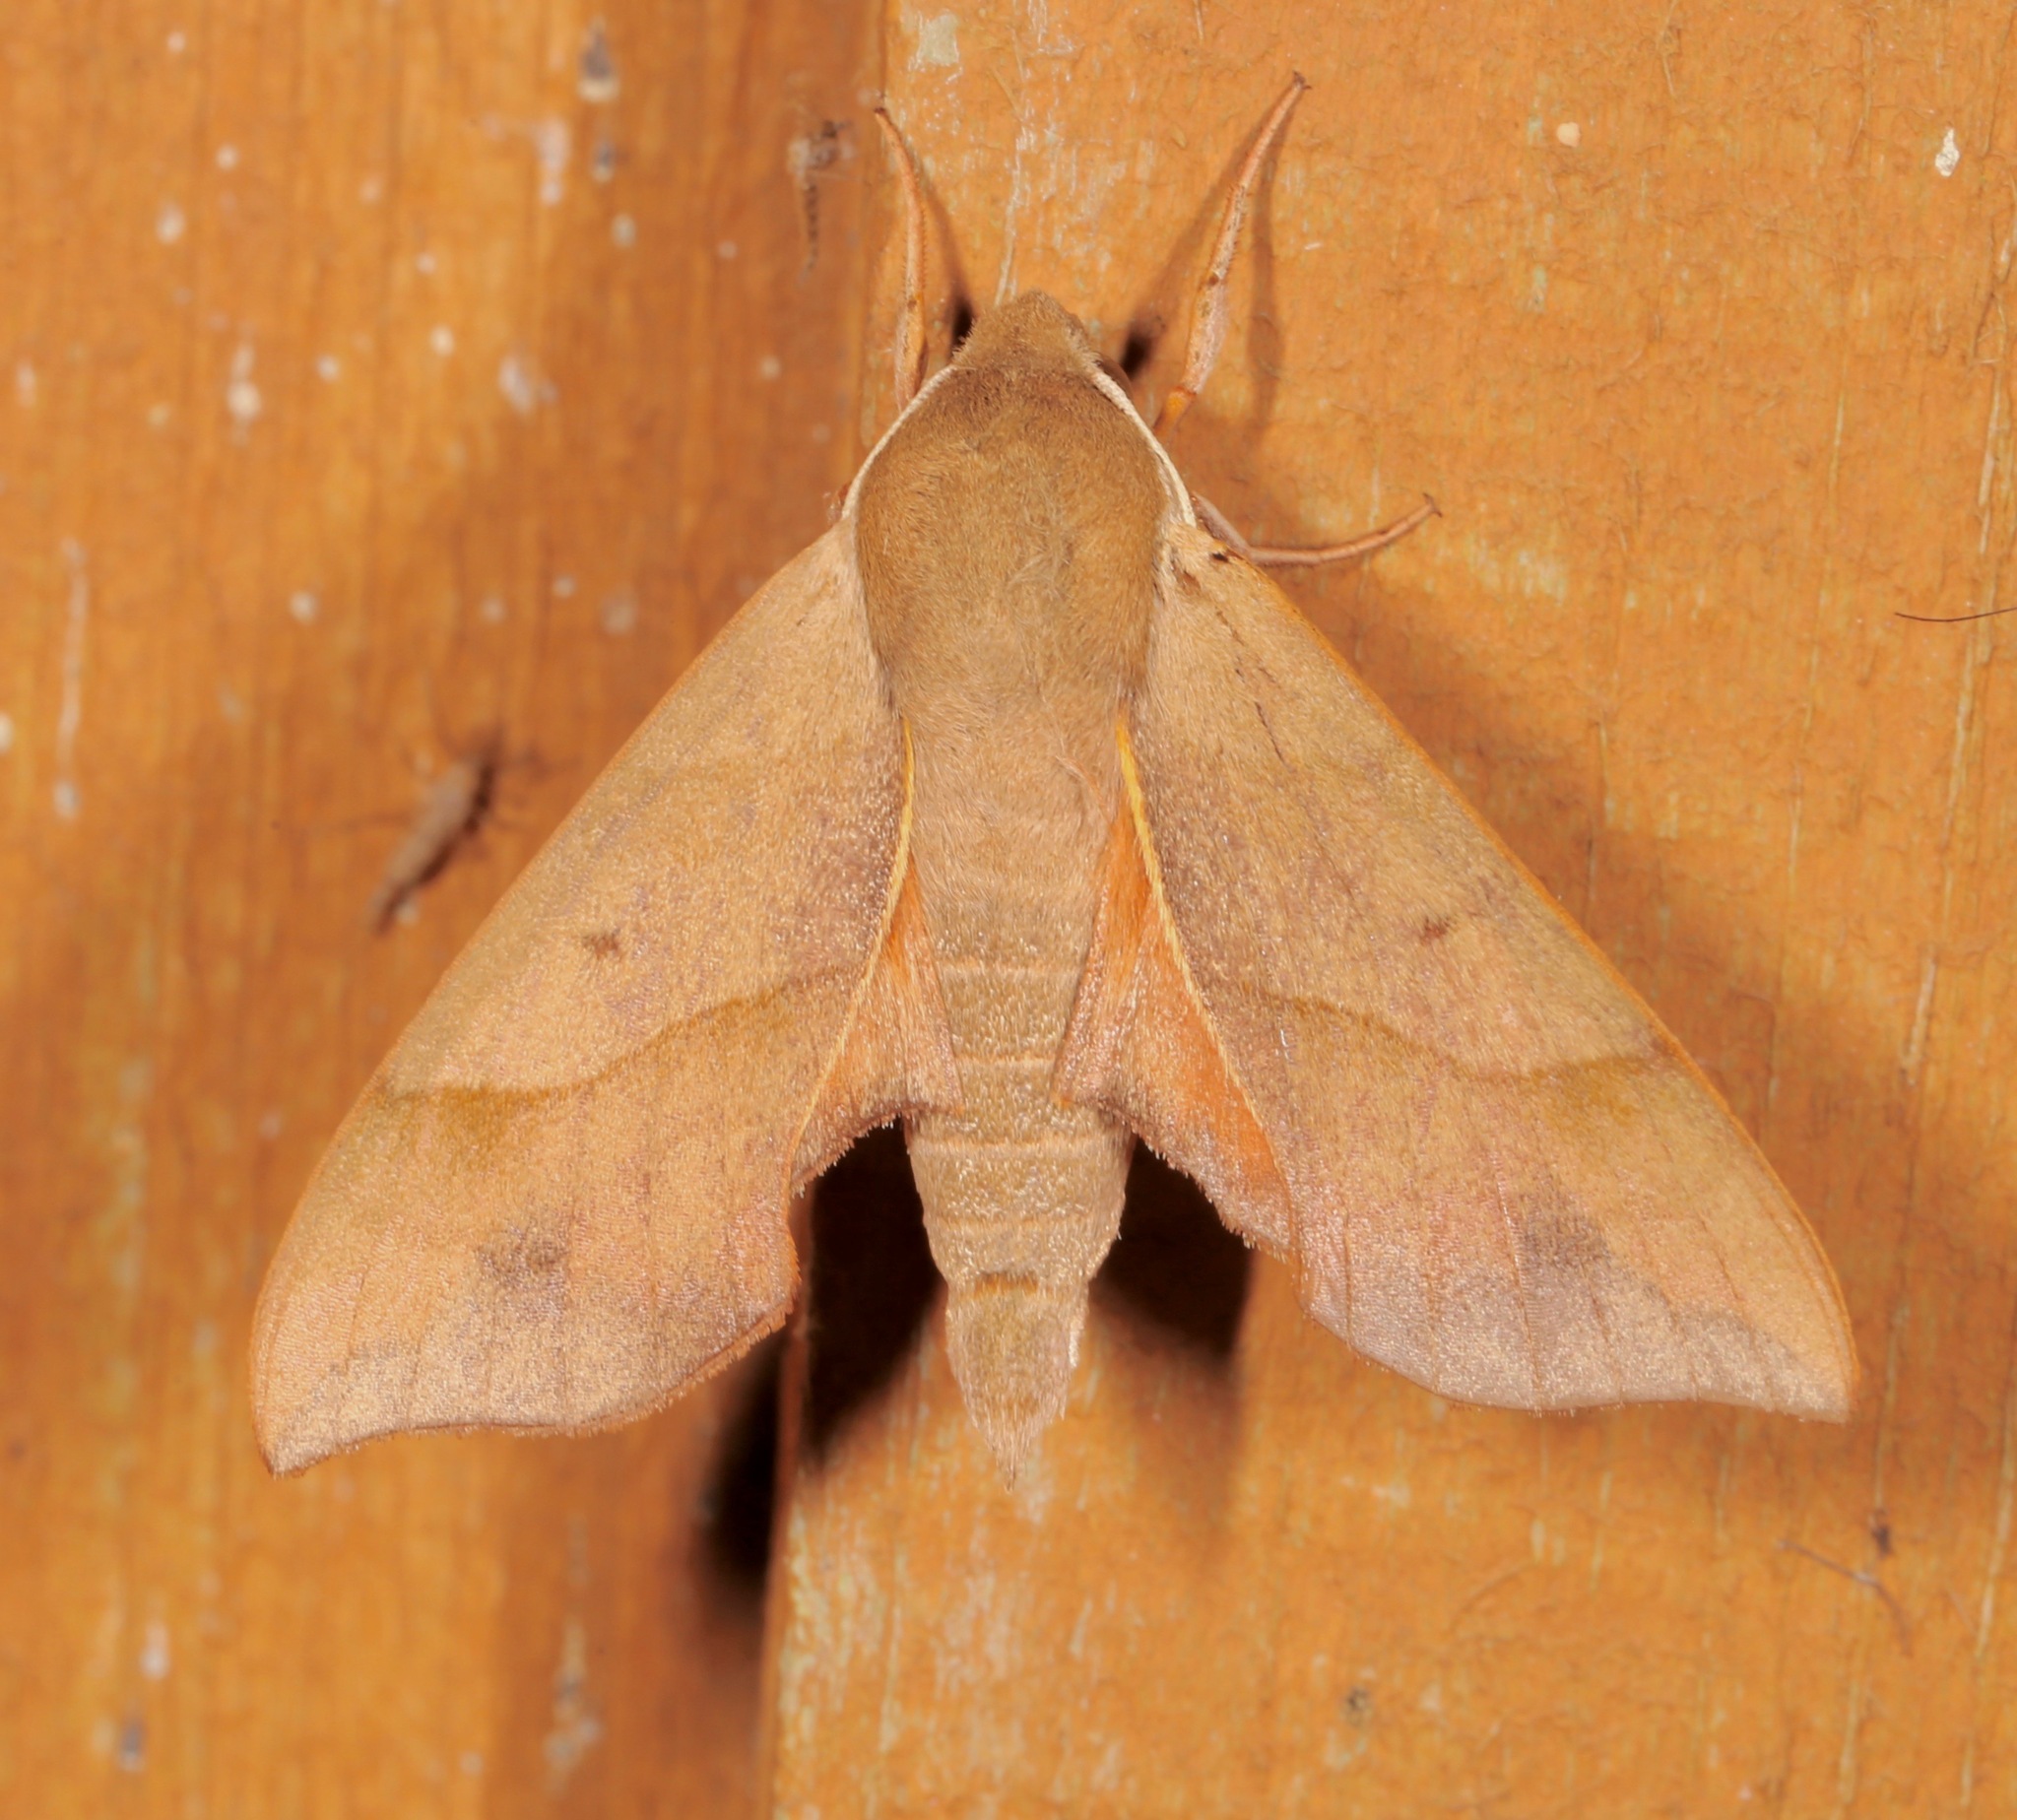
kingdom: Animalia
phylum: Arthropoda
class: Insecta
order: Lepidoptera
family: Sphingidae
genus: Darapsa
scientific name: Darapsa myron
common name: Hog sphinx
